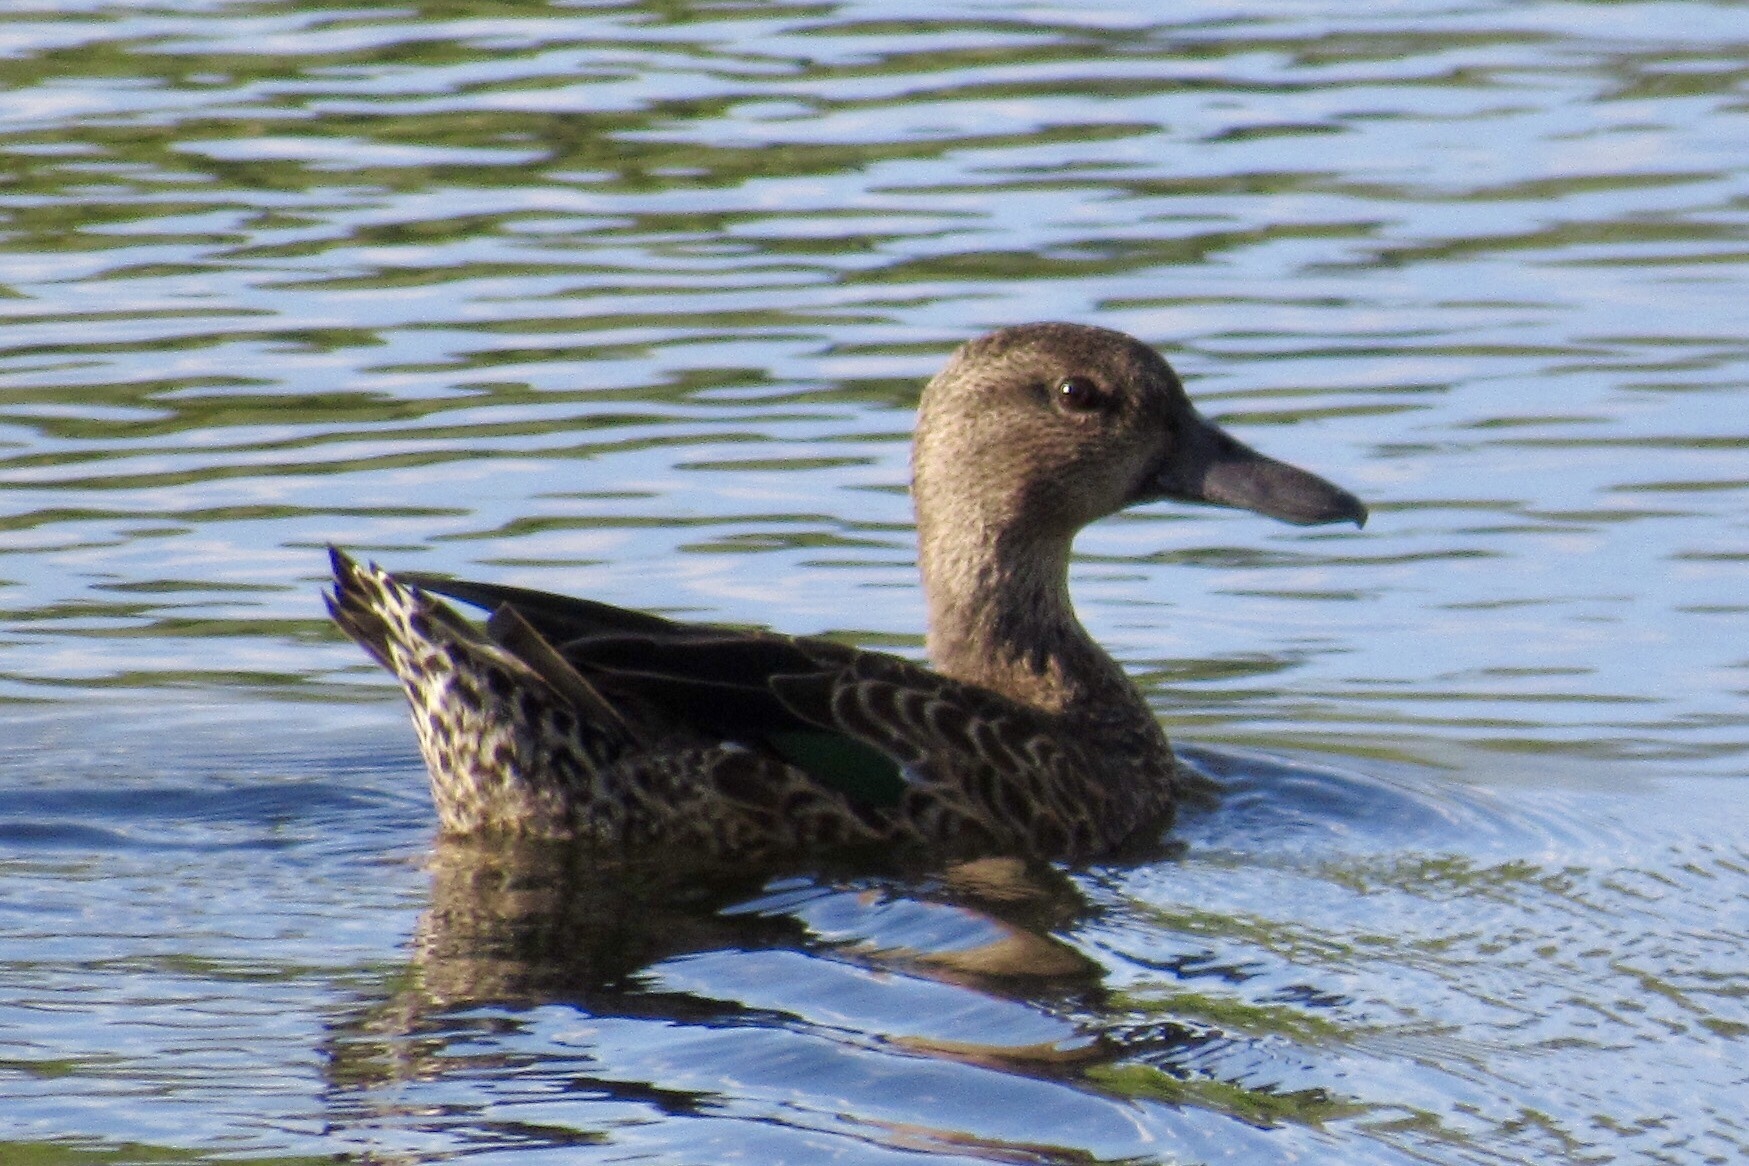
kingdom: Animalia
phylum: Chordata
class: Aves
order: Anseriformes
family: Anatidae
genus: Spatula
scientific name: Spatula discors
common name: Blue-winged teal
